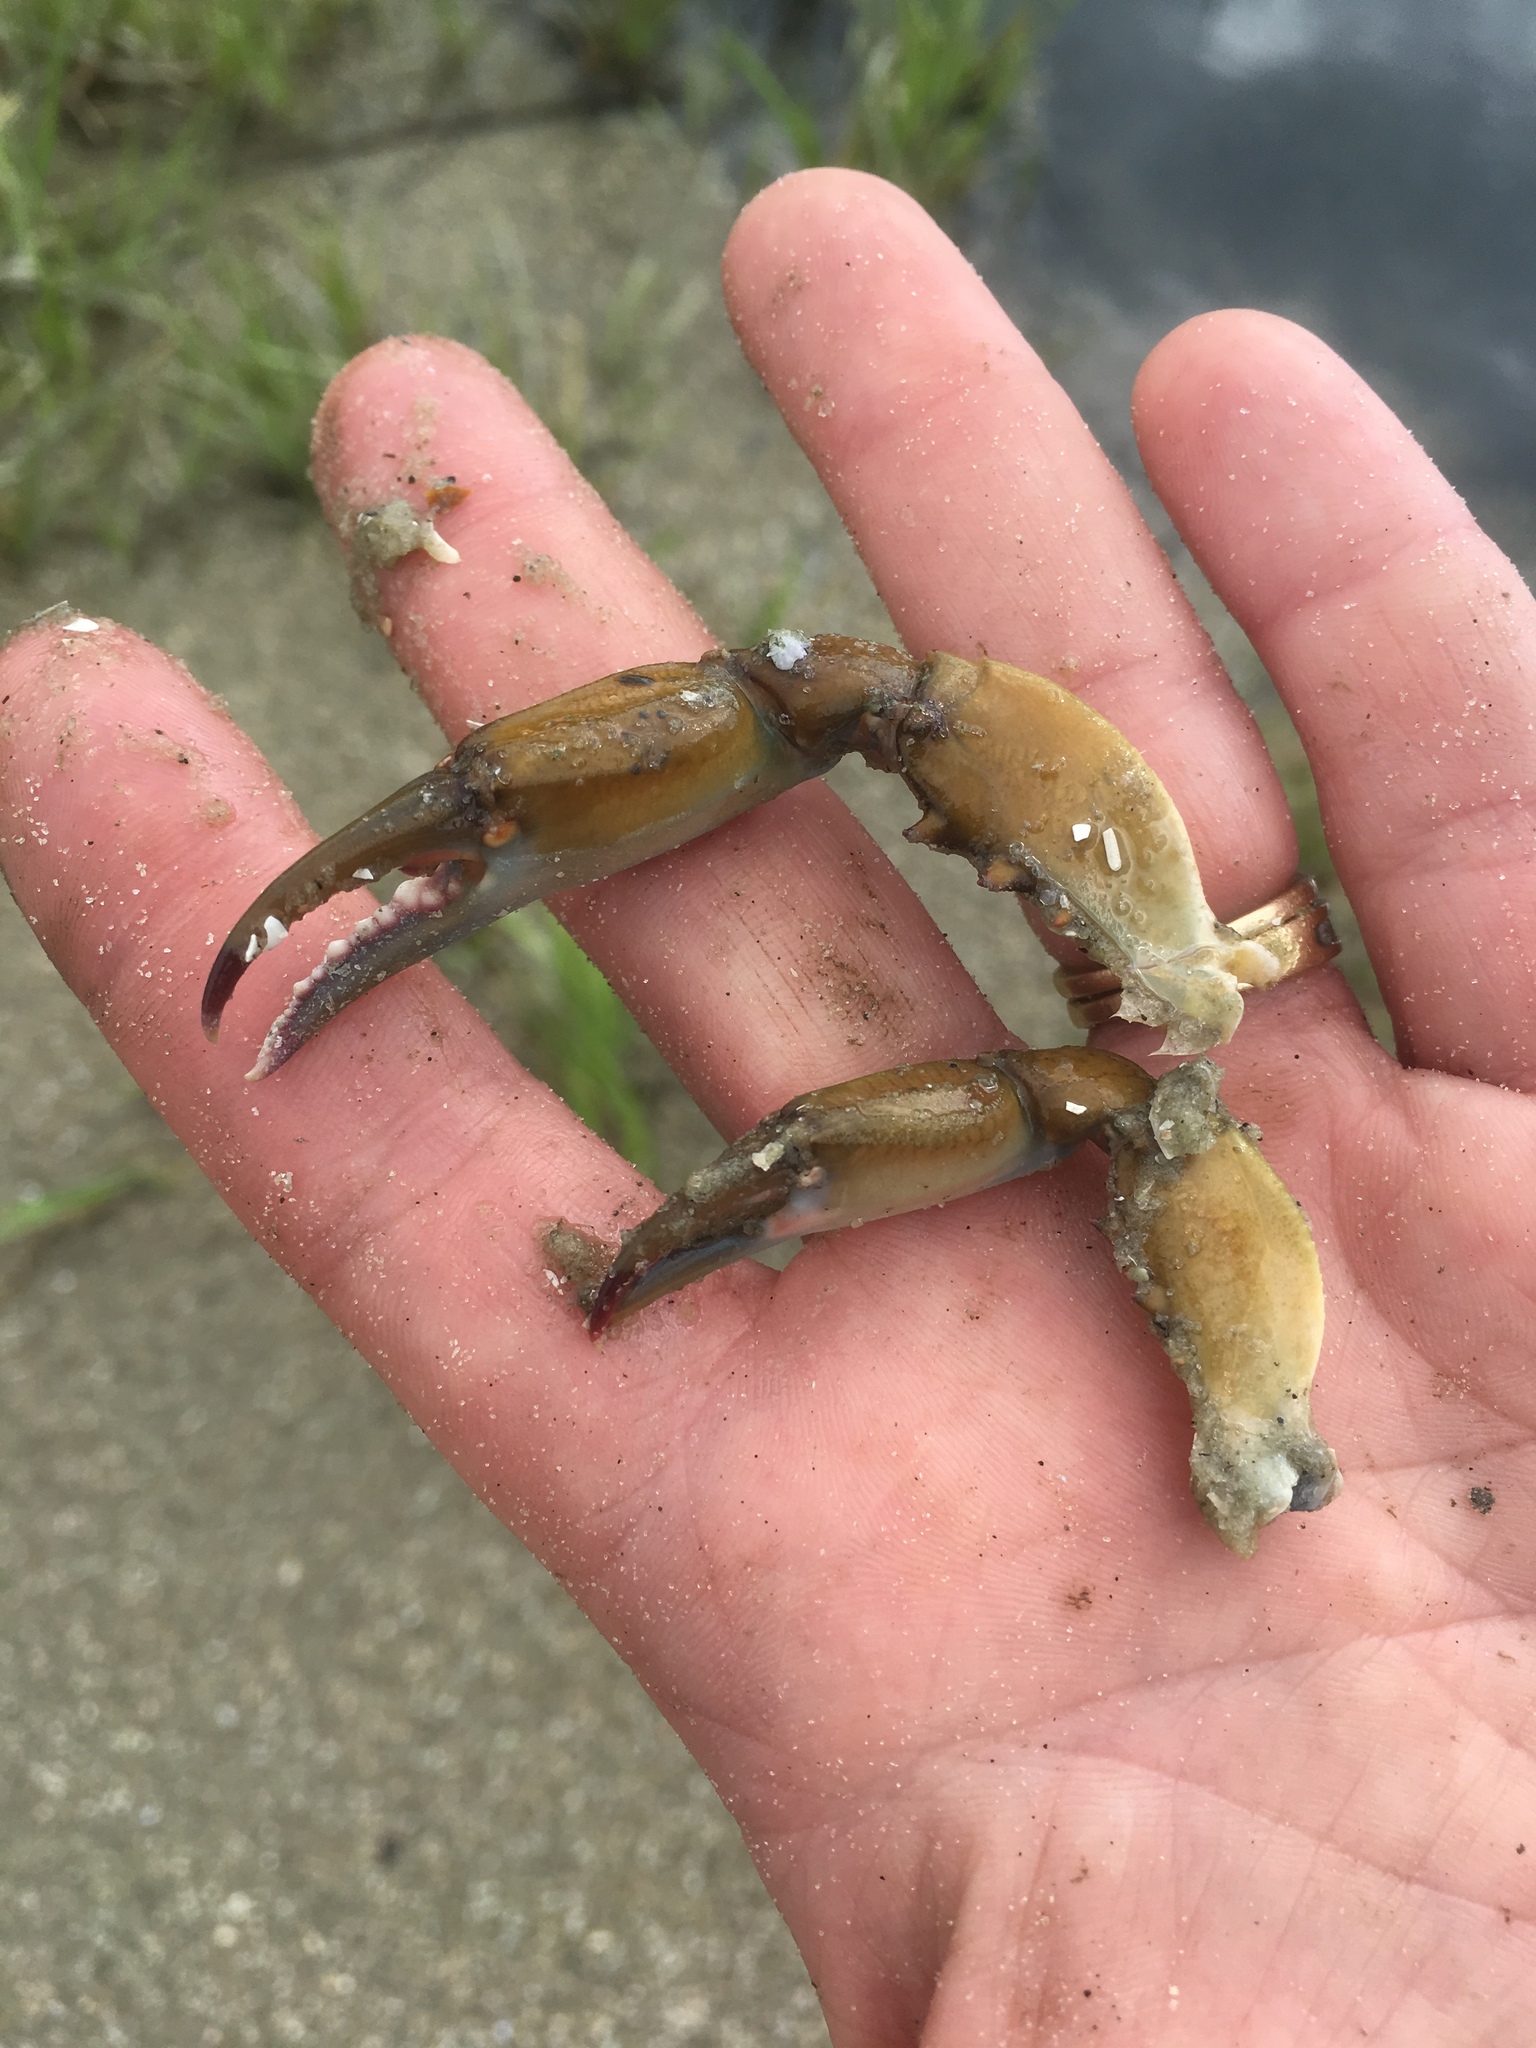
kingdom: Animalia
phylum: Arthropoda
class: Malacostraca
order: Decapoda
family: Portunidae
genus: Callinectes
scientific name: Callinectes sapidus
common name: Blue crab
